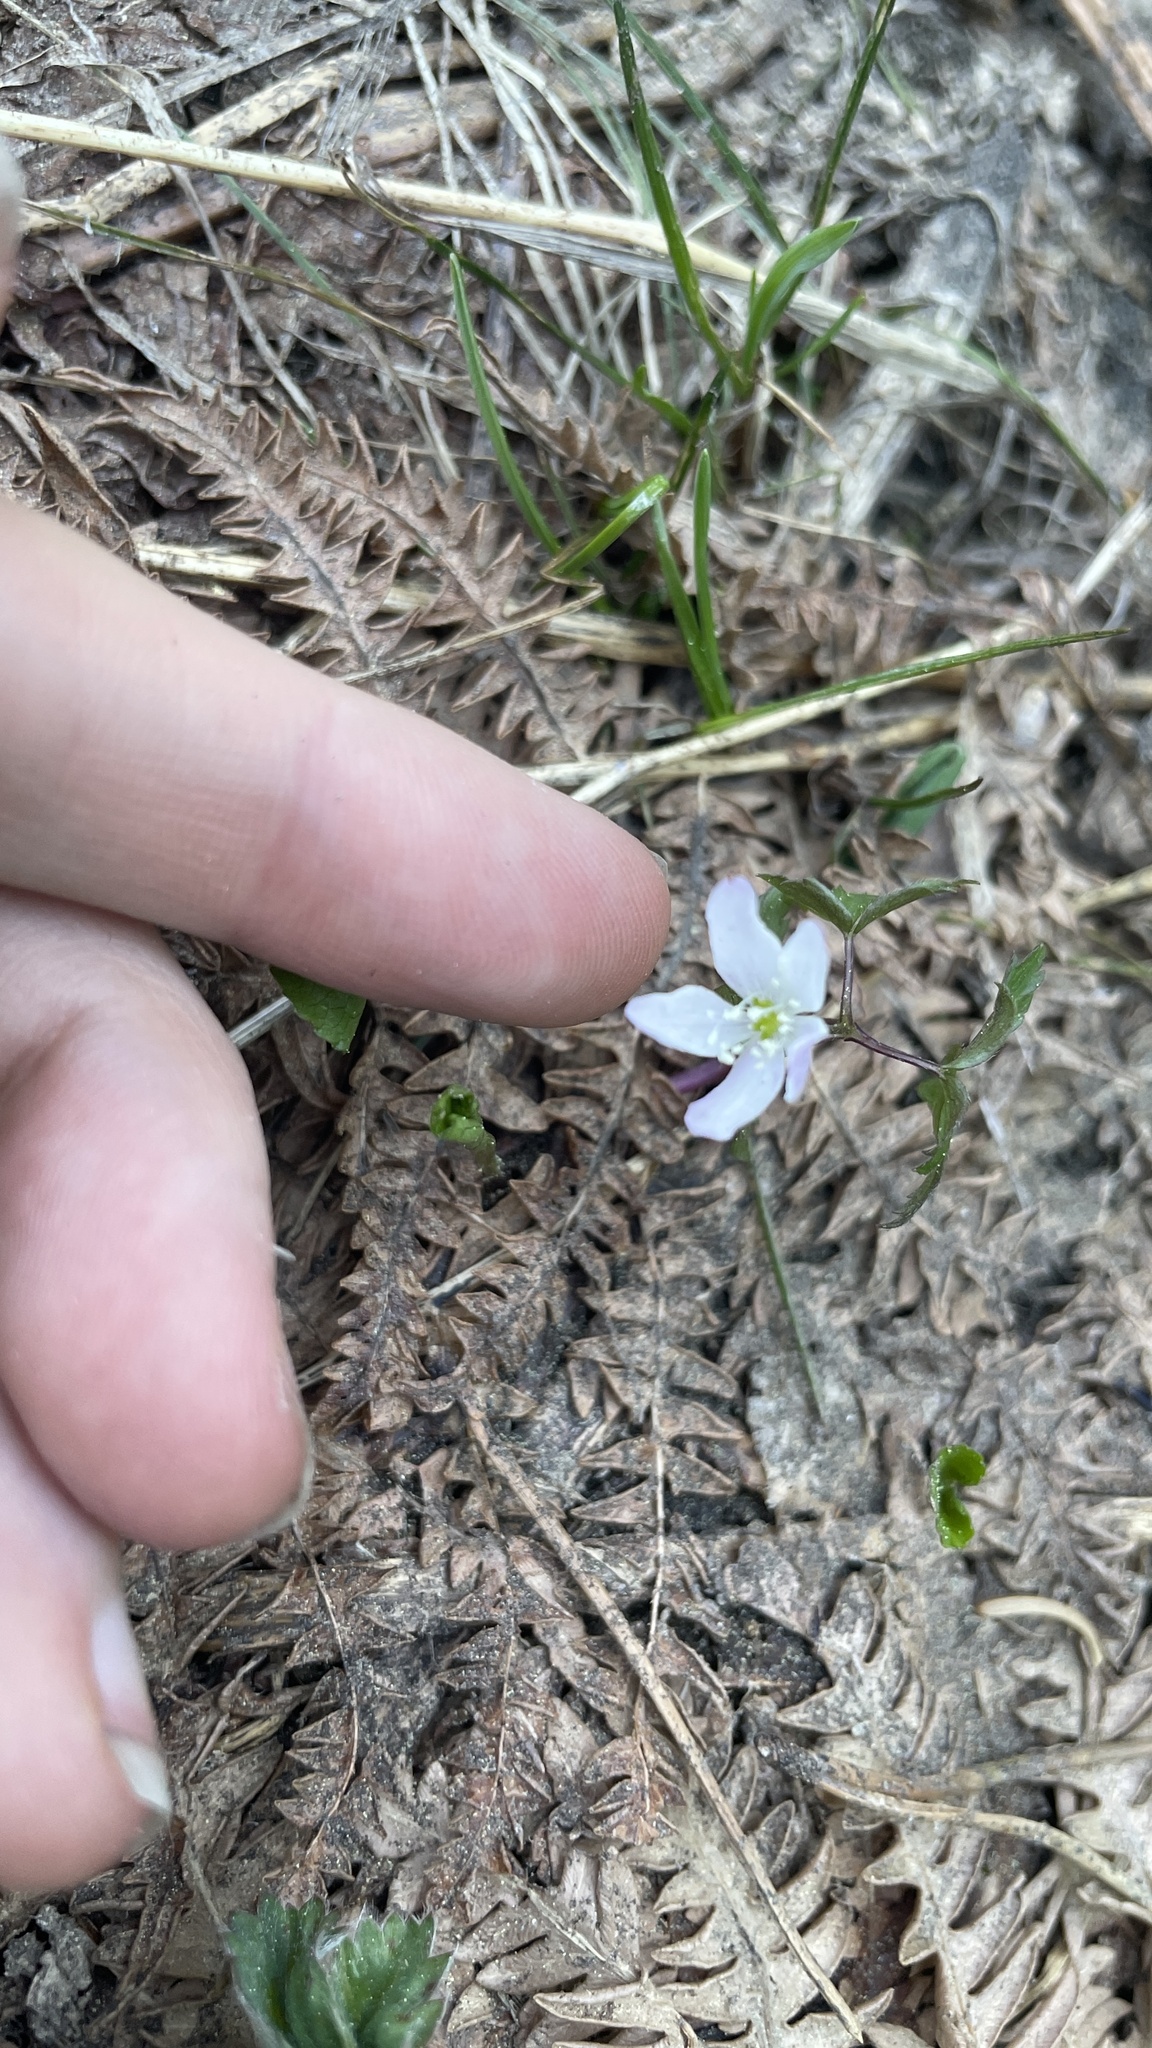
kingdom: Plantae
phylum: Tracheophyta
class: Magnoliopsida
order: Ranunculales
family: Ranunculaceae
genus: Anemone
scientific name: Anemone
